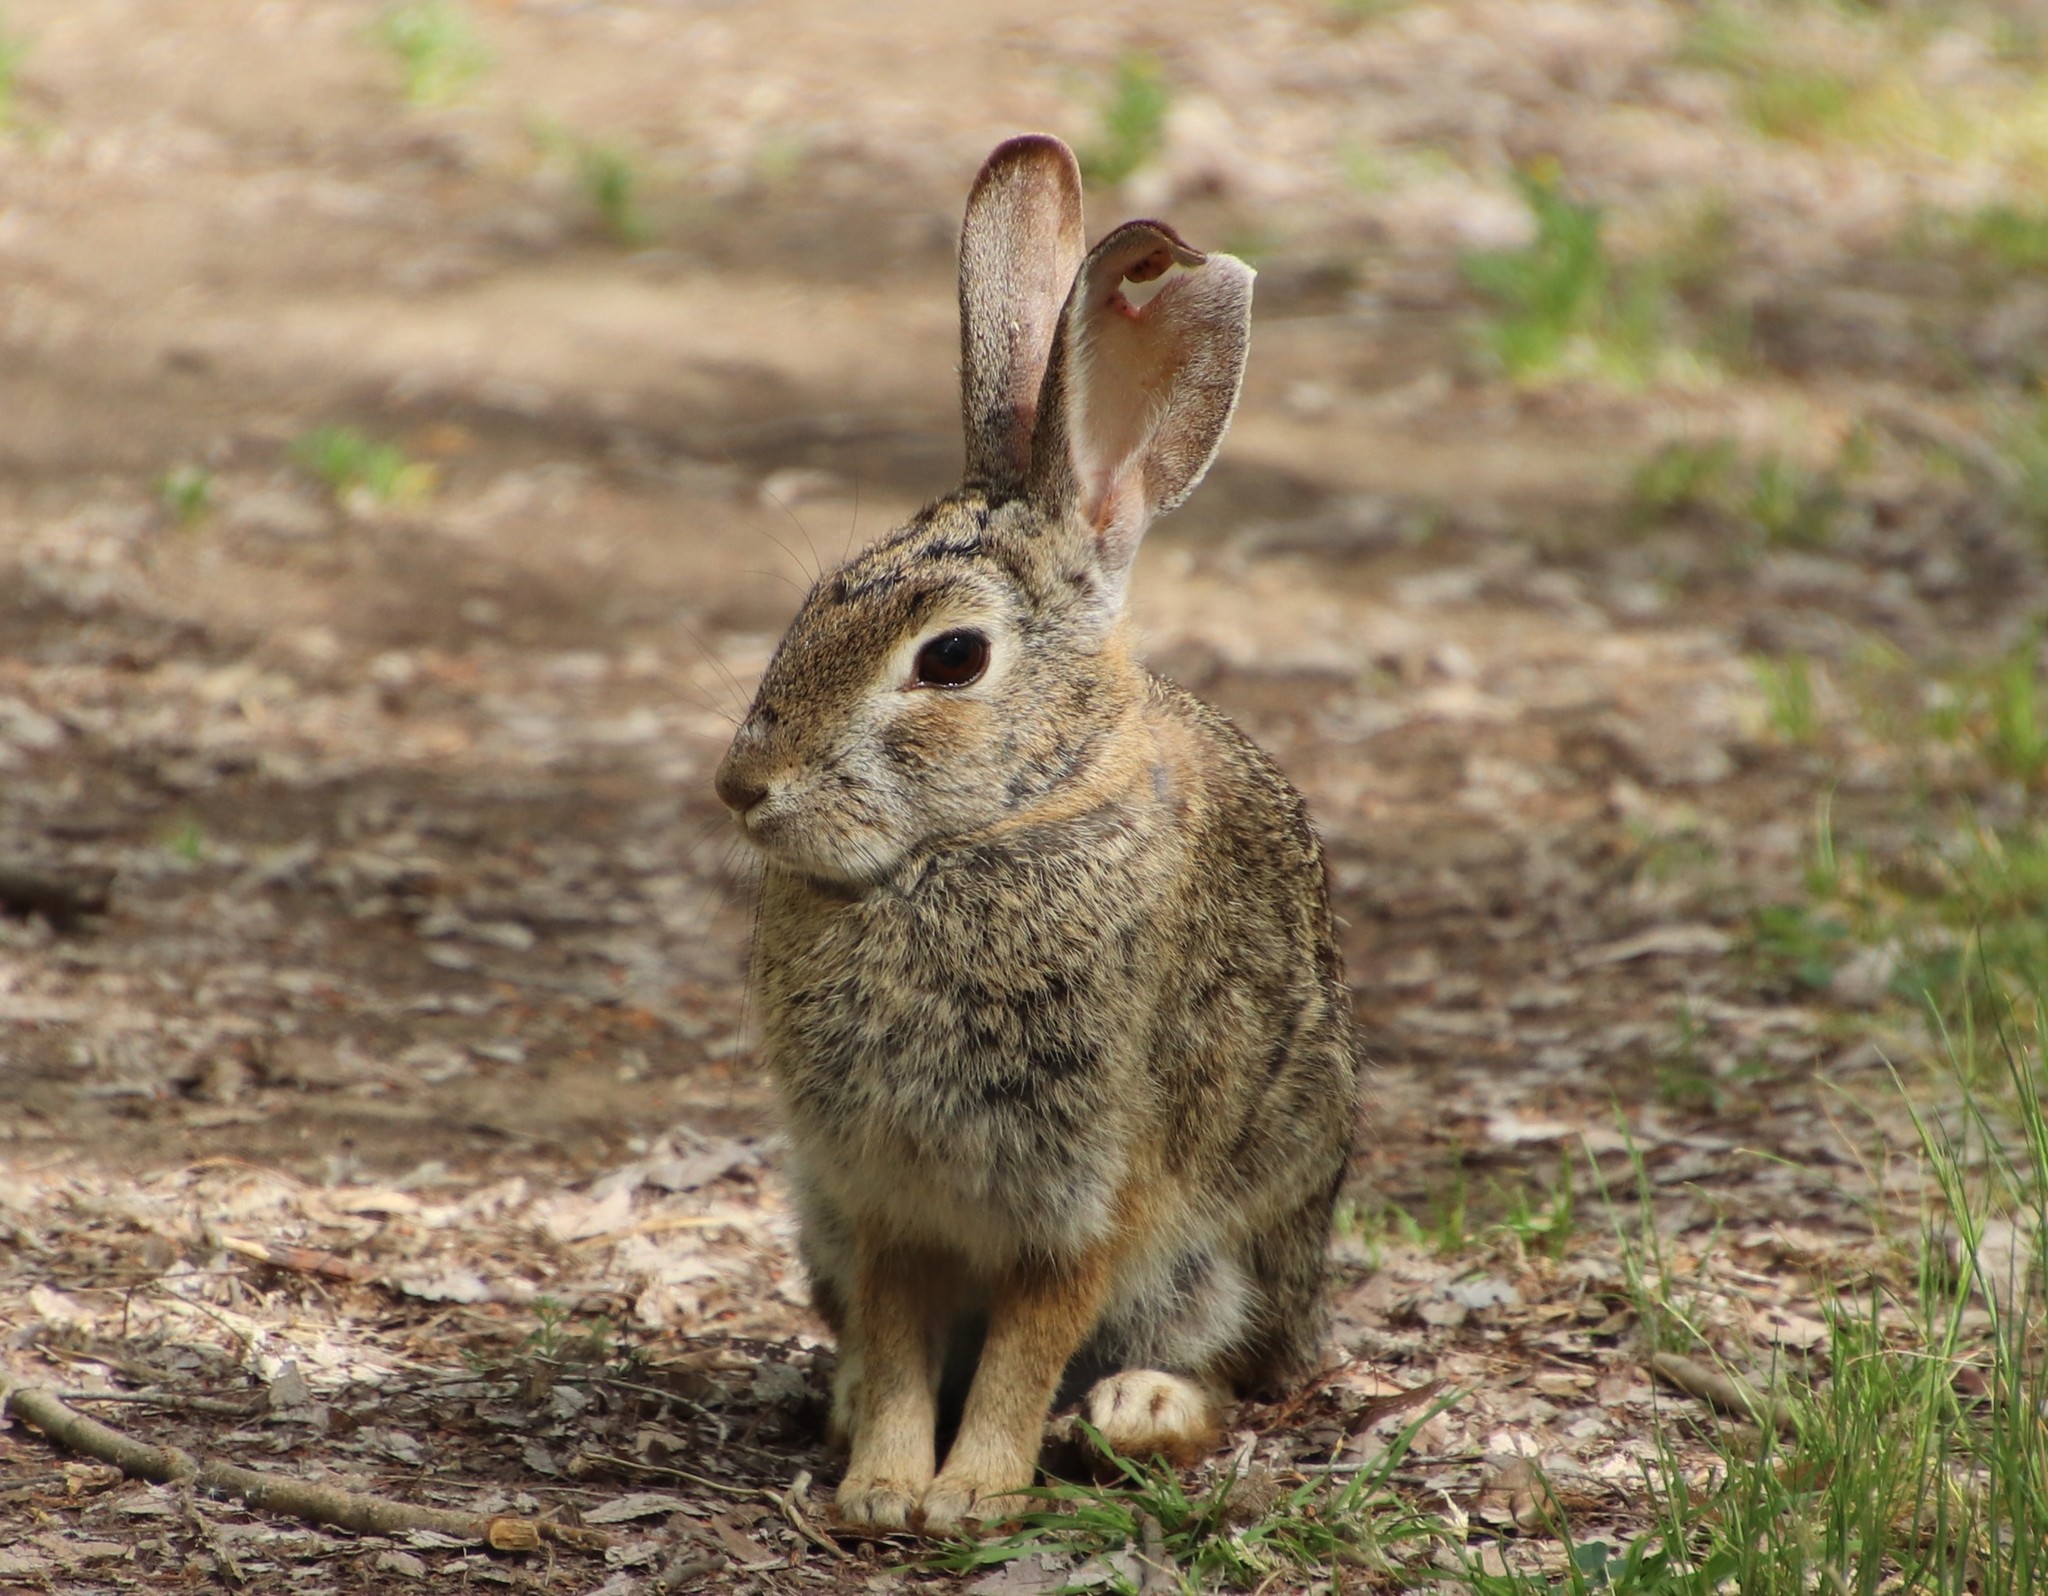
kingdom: Animalia
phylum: Chordata
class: Mammalia
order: Lagomorpha
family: Leporidae
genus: Sylvilagus
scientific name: Sylvilagus audubonii
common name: Desert cottontail
